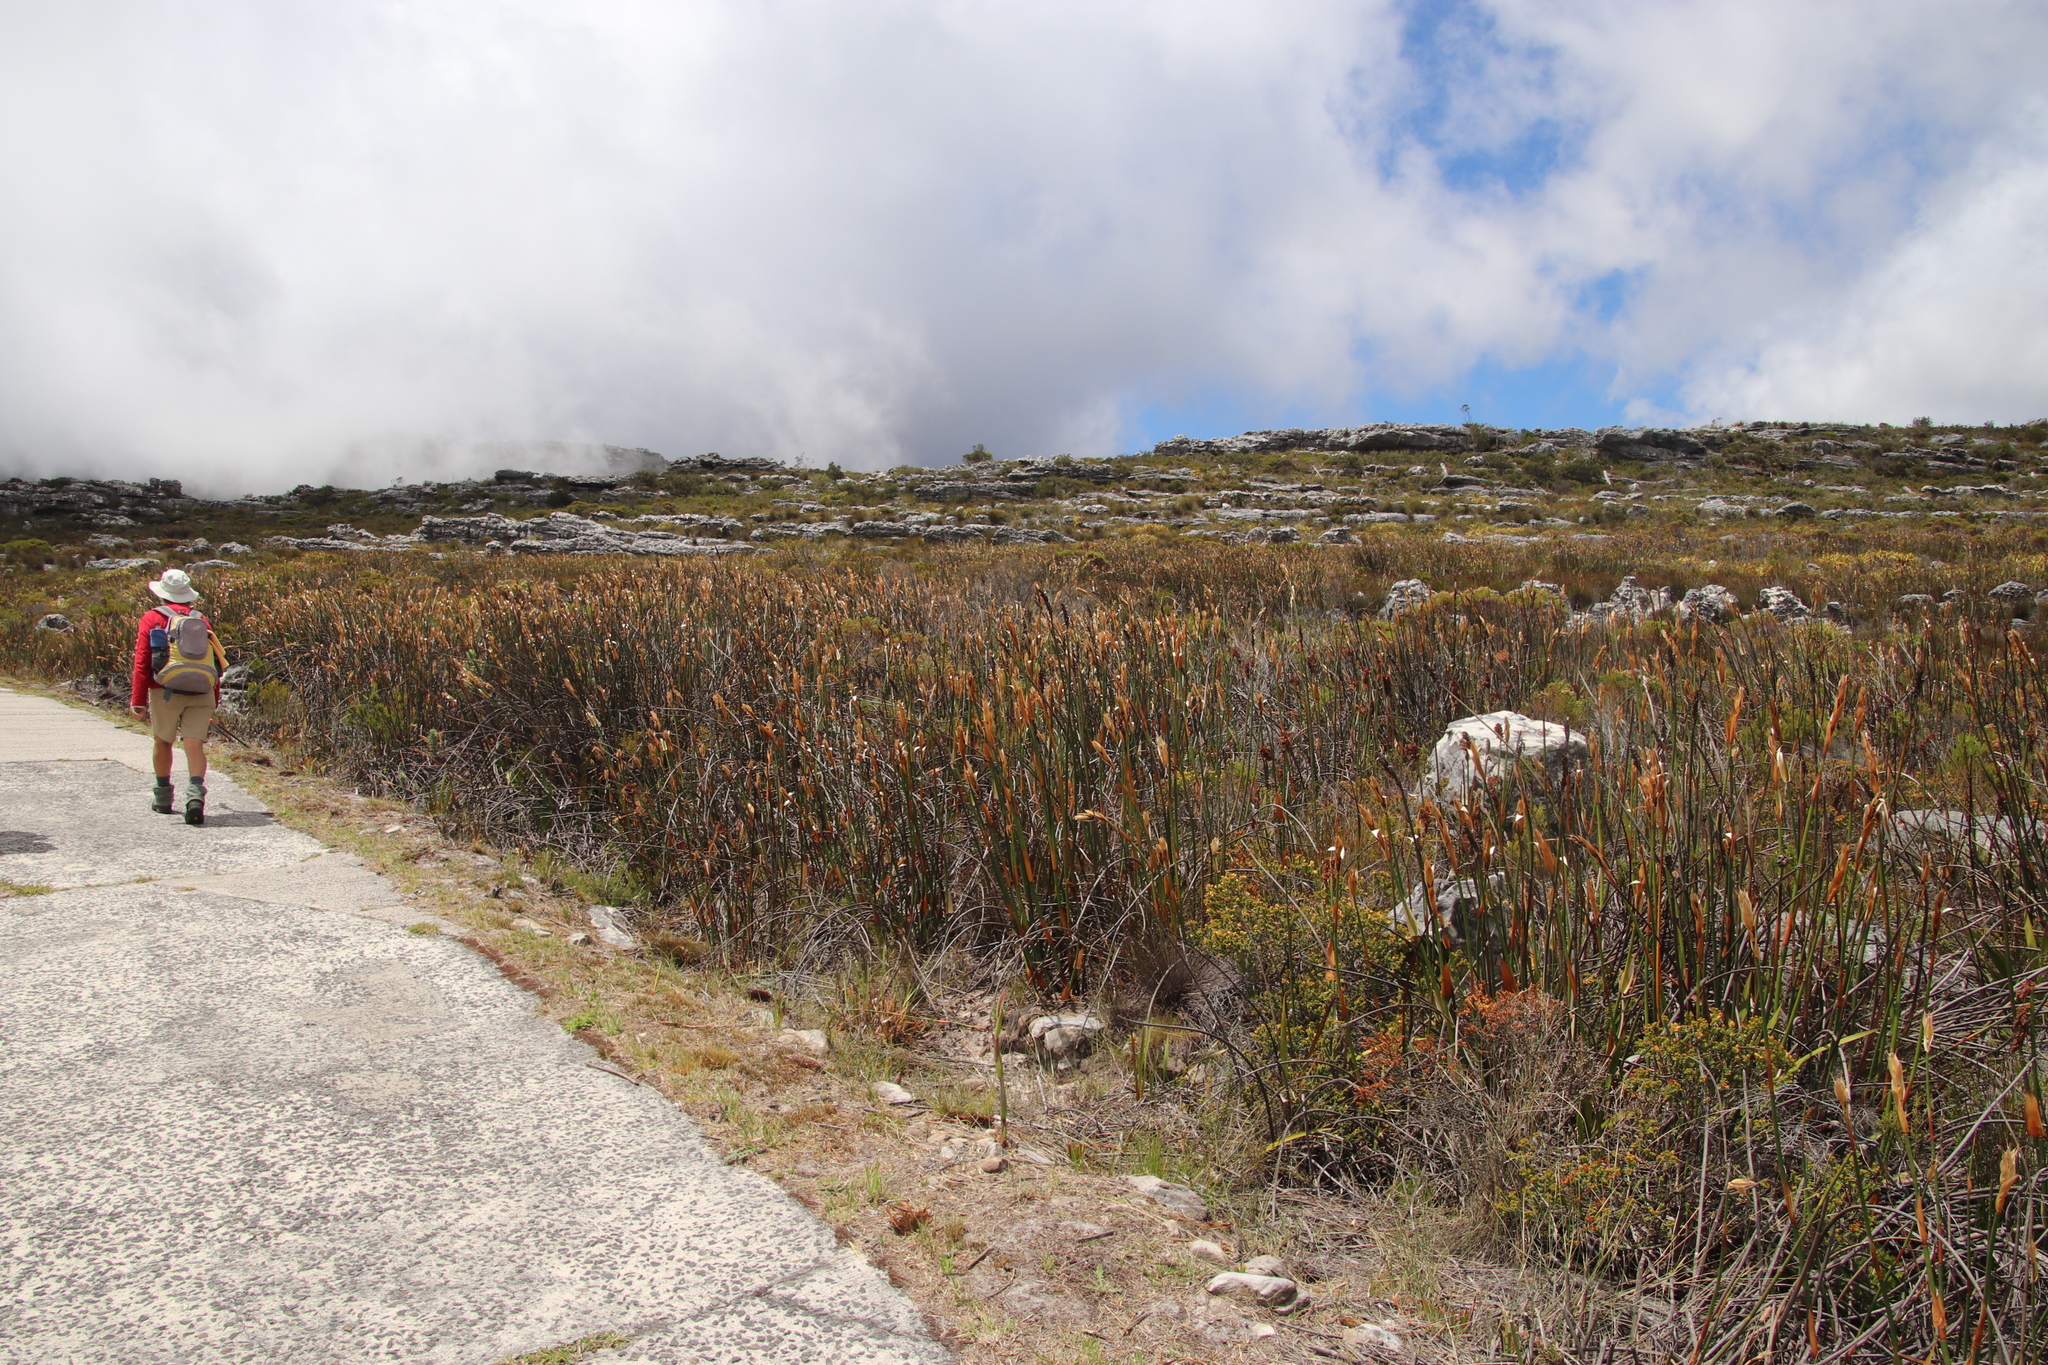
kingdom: Plantae
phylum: Tracheophyta
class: Liliopsida
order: Poales
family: Restionaceae
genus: Elegia
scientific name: Elegia mucronata
